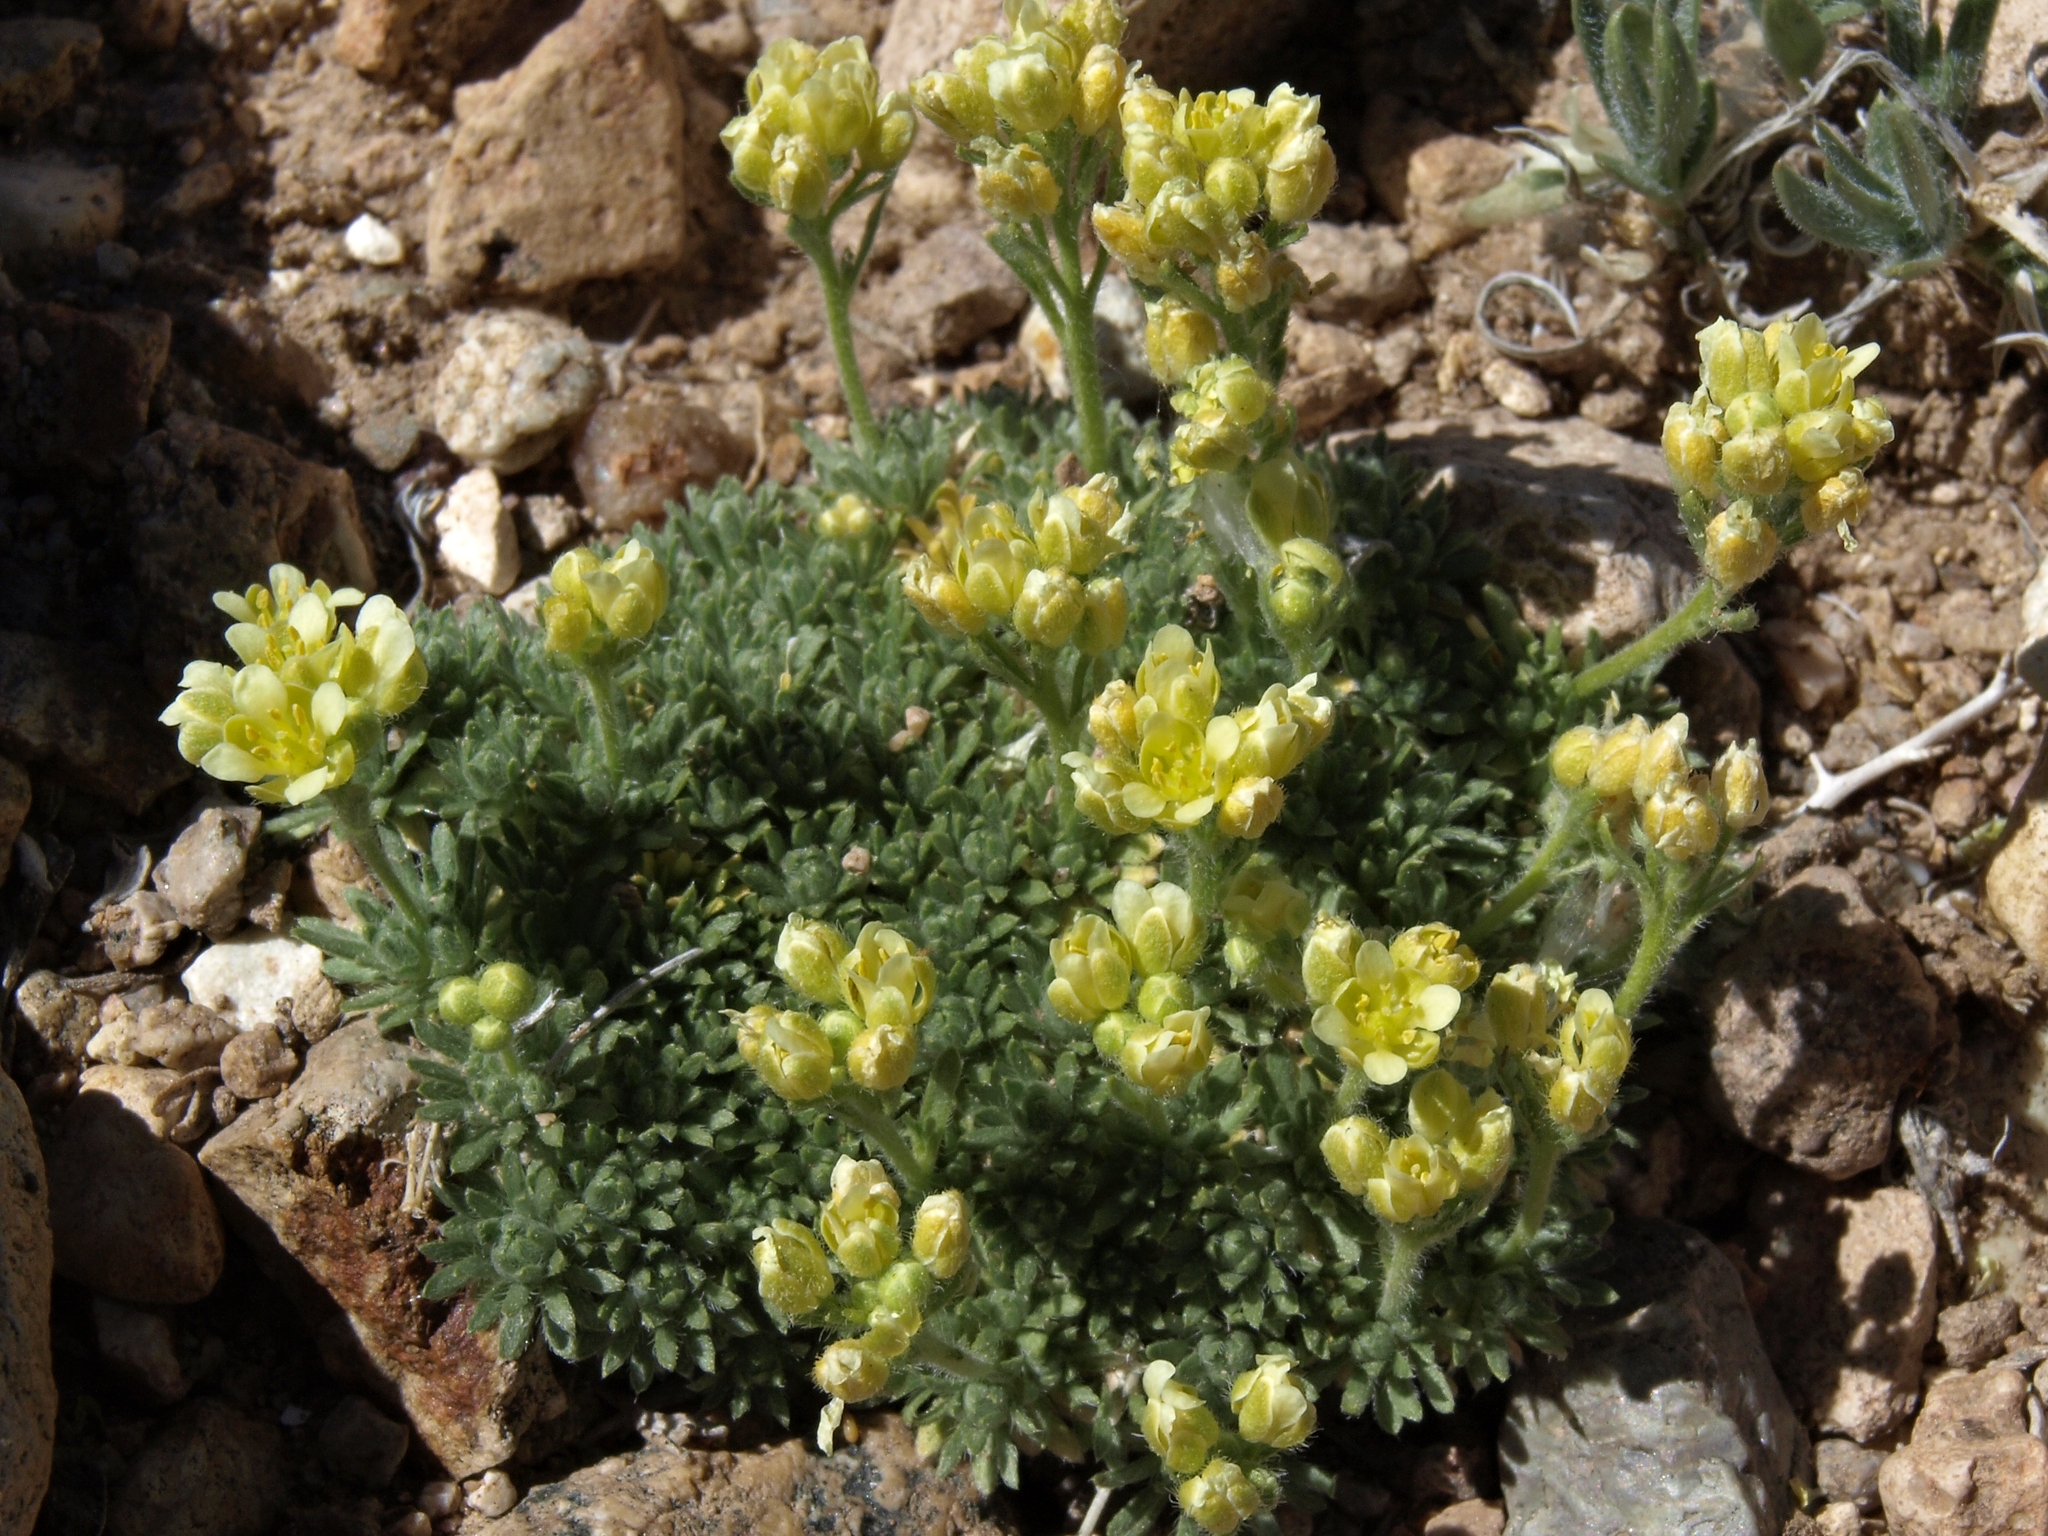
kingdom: Plantae
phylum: Tracheophyta
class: Magnoliopsida
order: Brassicales
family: Brassicaceae
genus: Cusickiella
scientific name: Cusickiella quadricostata
